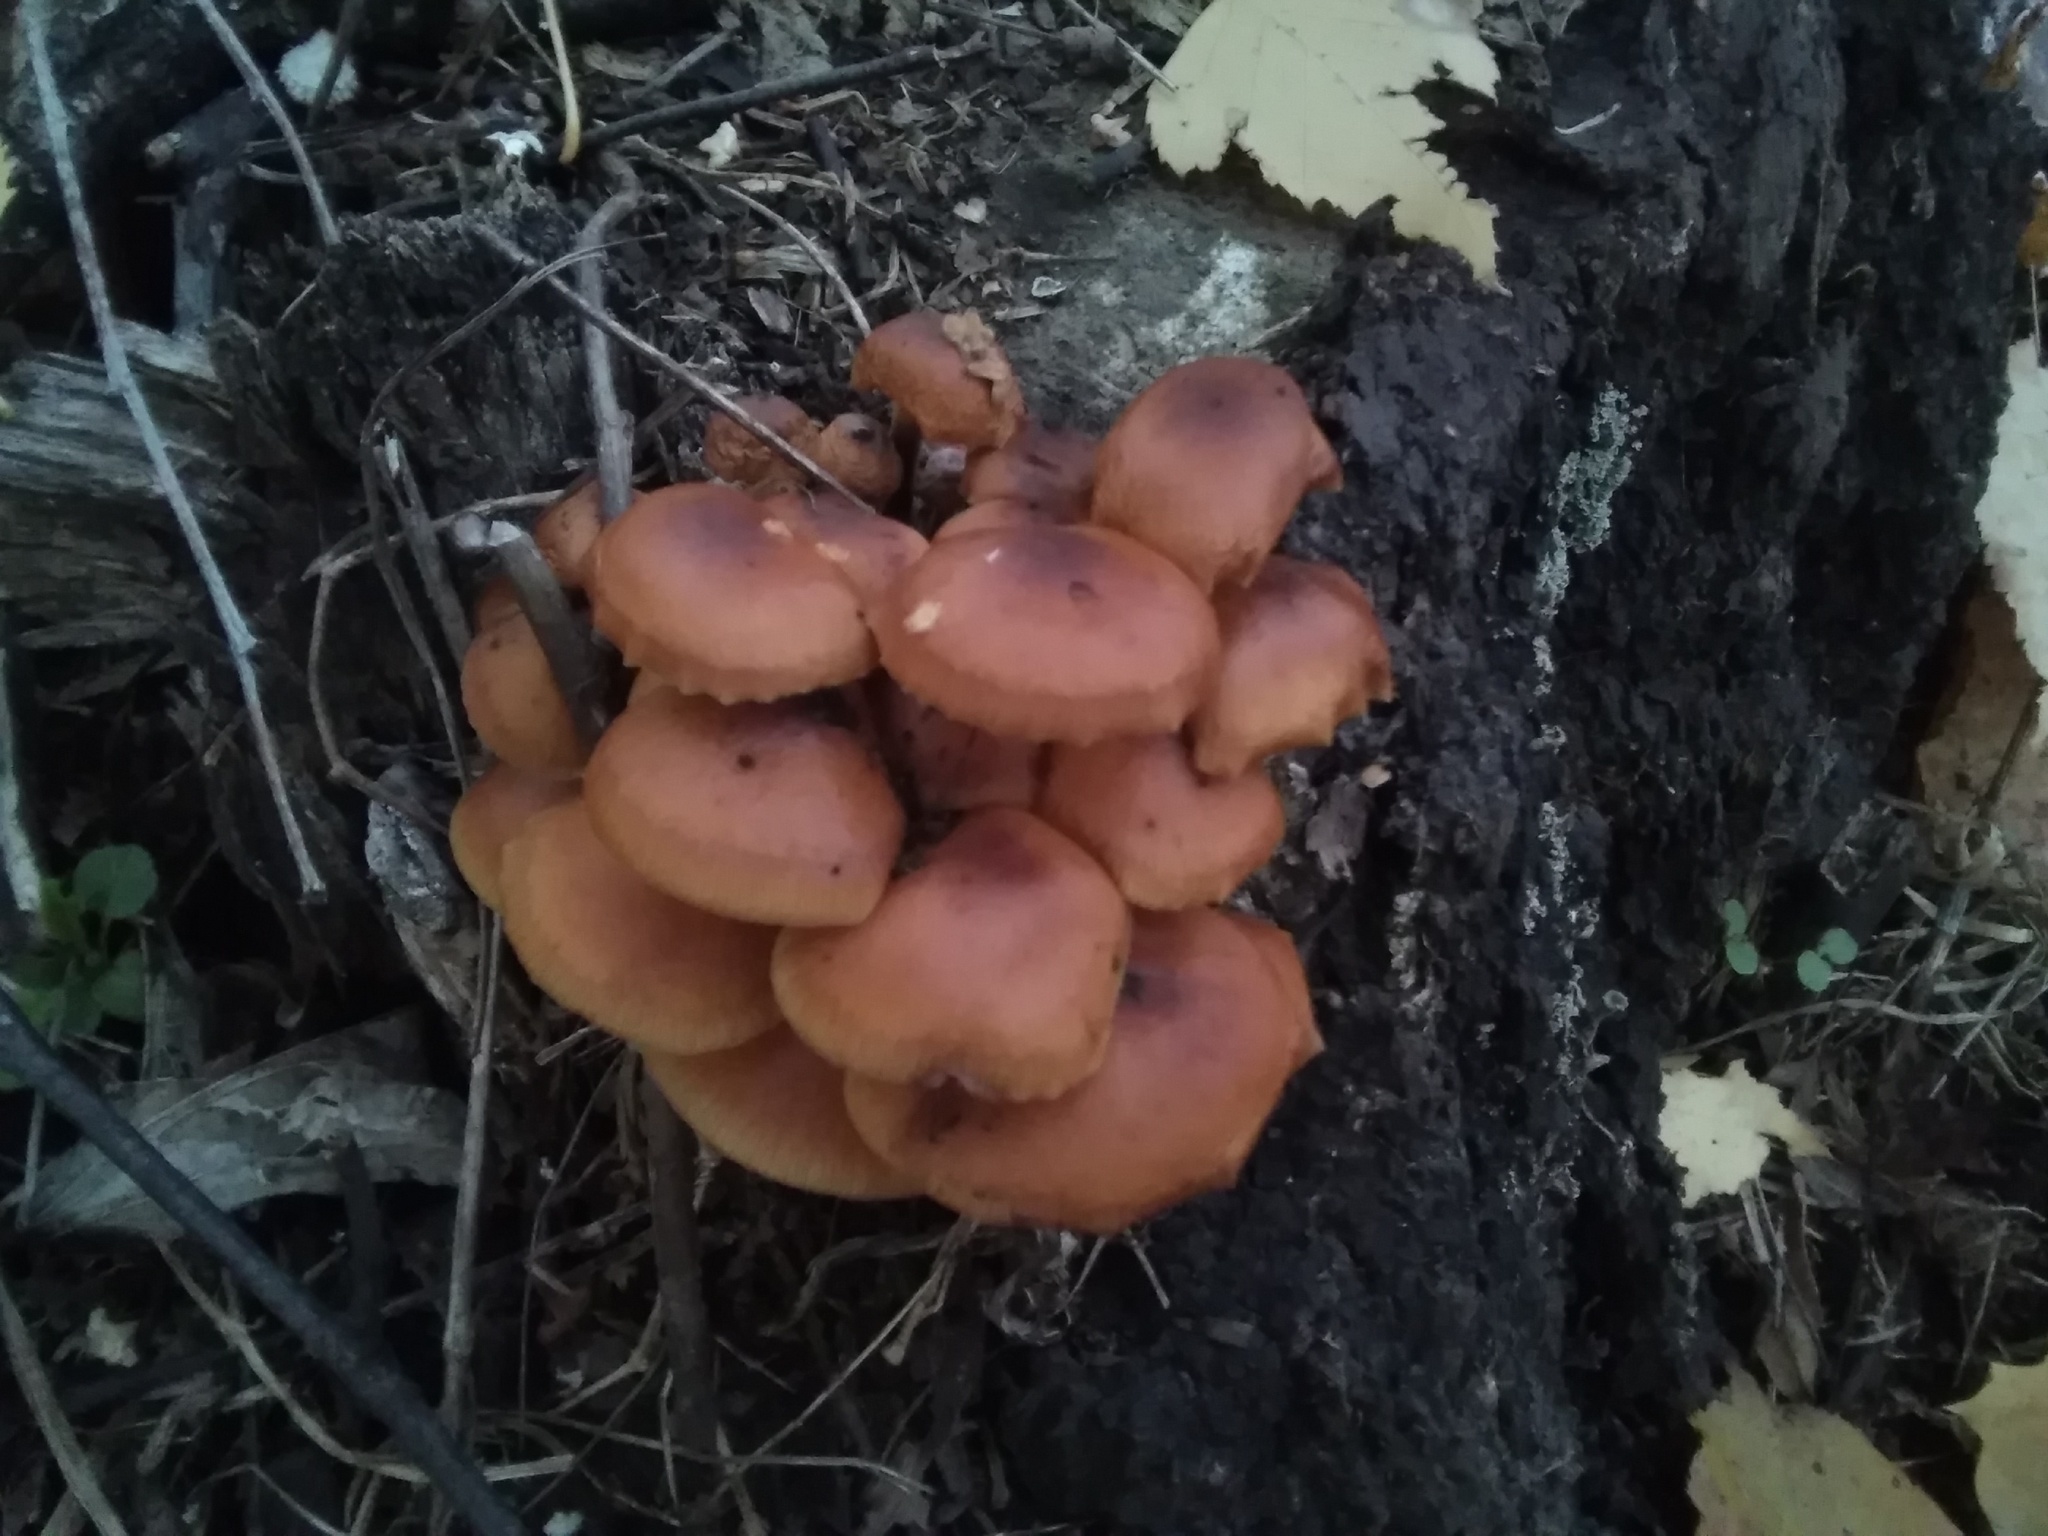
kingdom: Fungi
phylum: Basidiomycota
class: Agaricomycetes
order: Agaricales
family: Physalacriaceae
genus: Flammulina
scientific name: Flammulina
